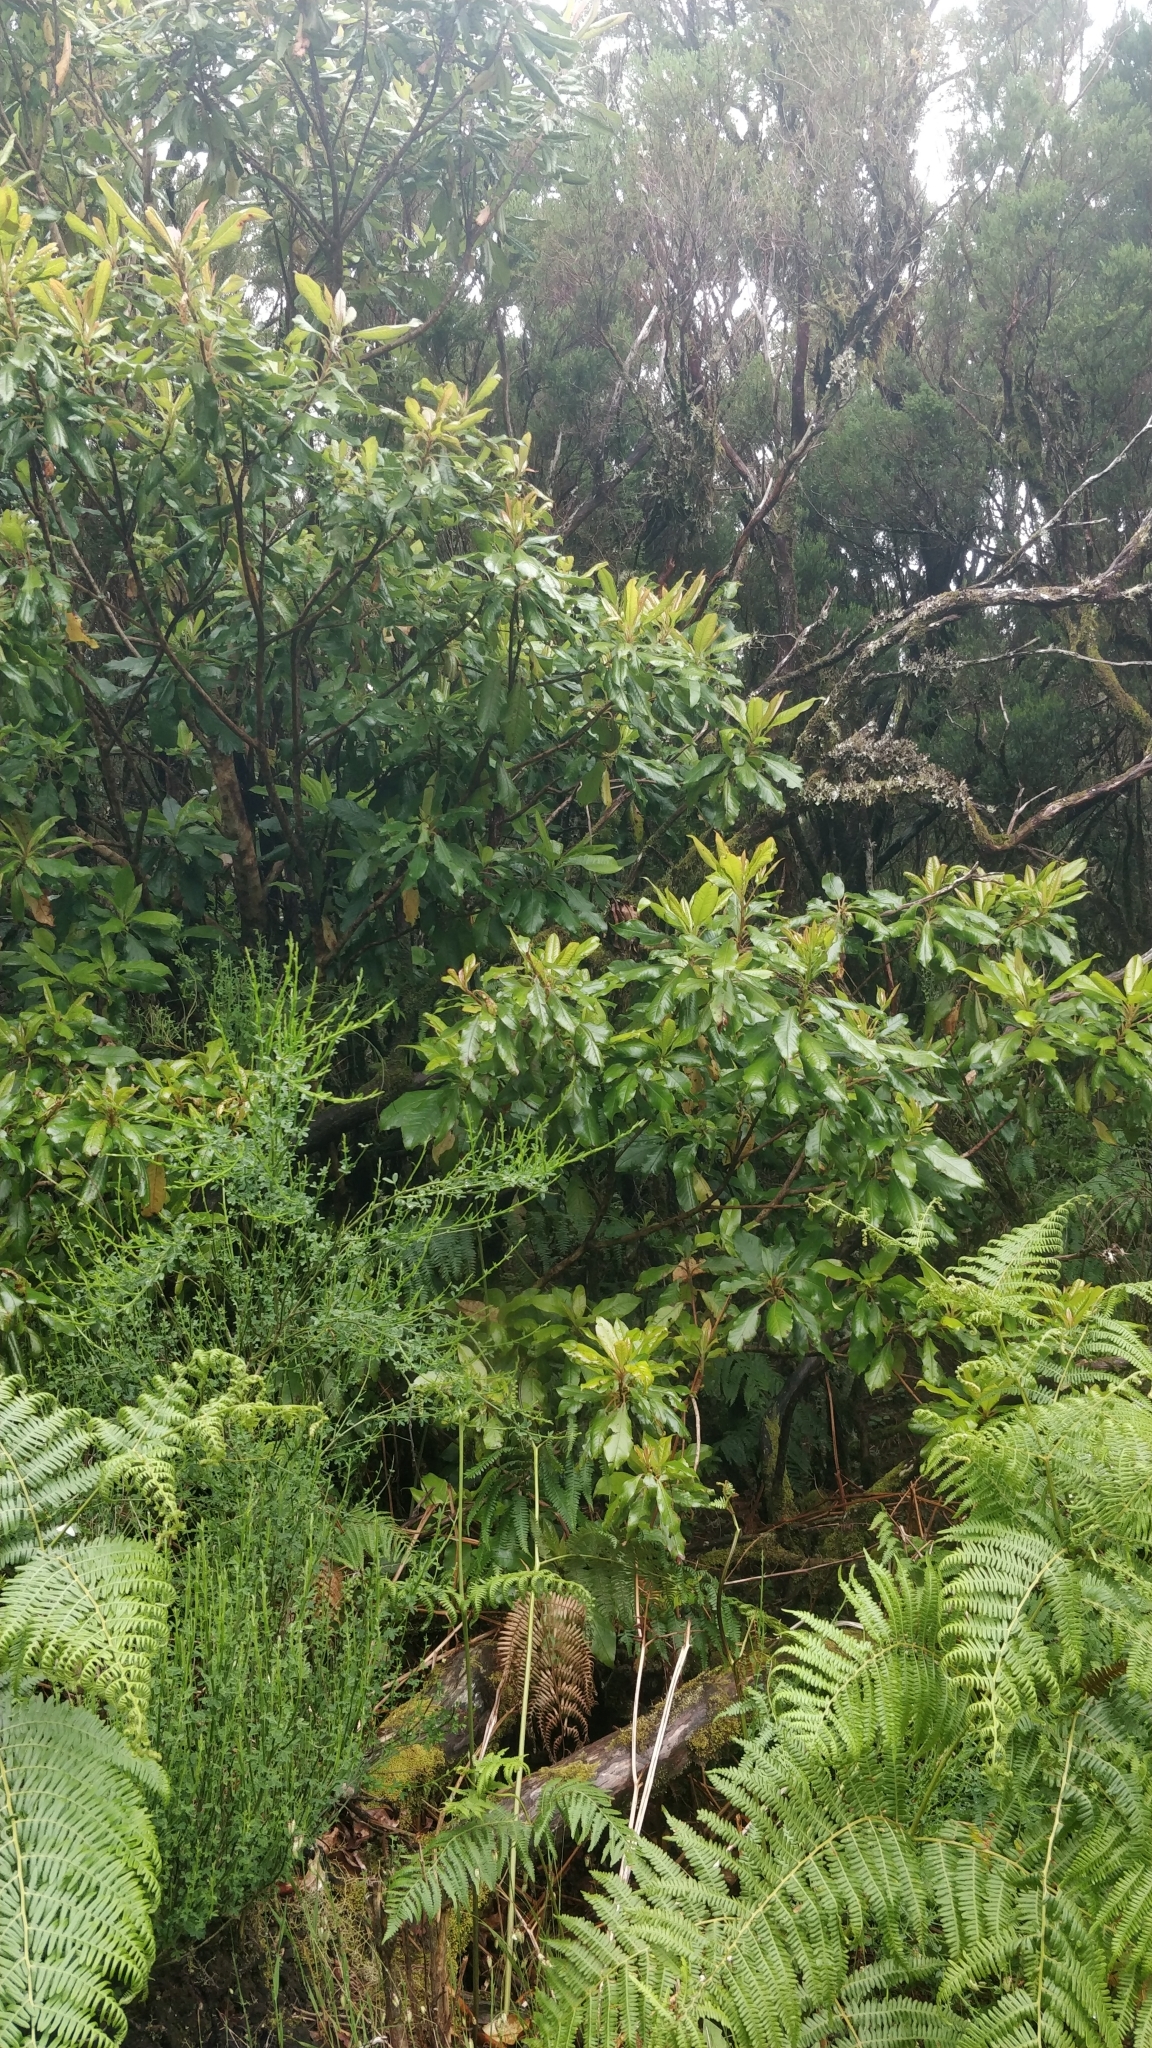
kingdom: Plantae
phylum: Tracheophyta
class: Magnoliopsida
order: Ericales
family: Clethraceae
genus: Clethra
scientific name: Clethra arborea
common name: Lily-of-the-valley-tree
